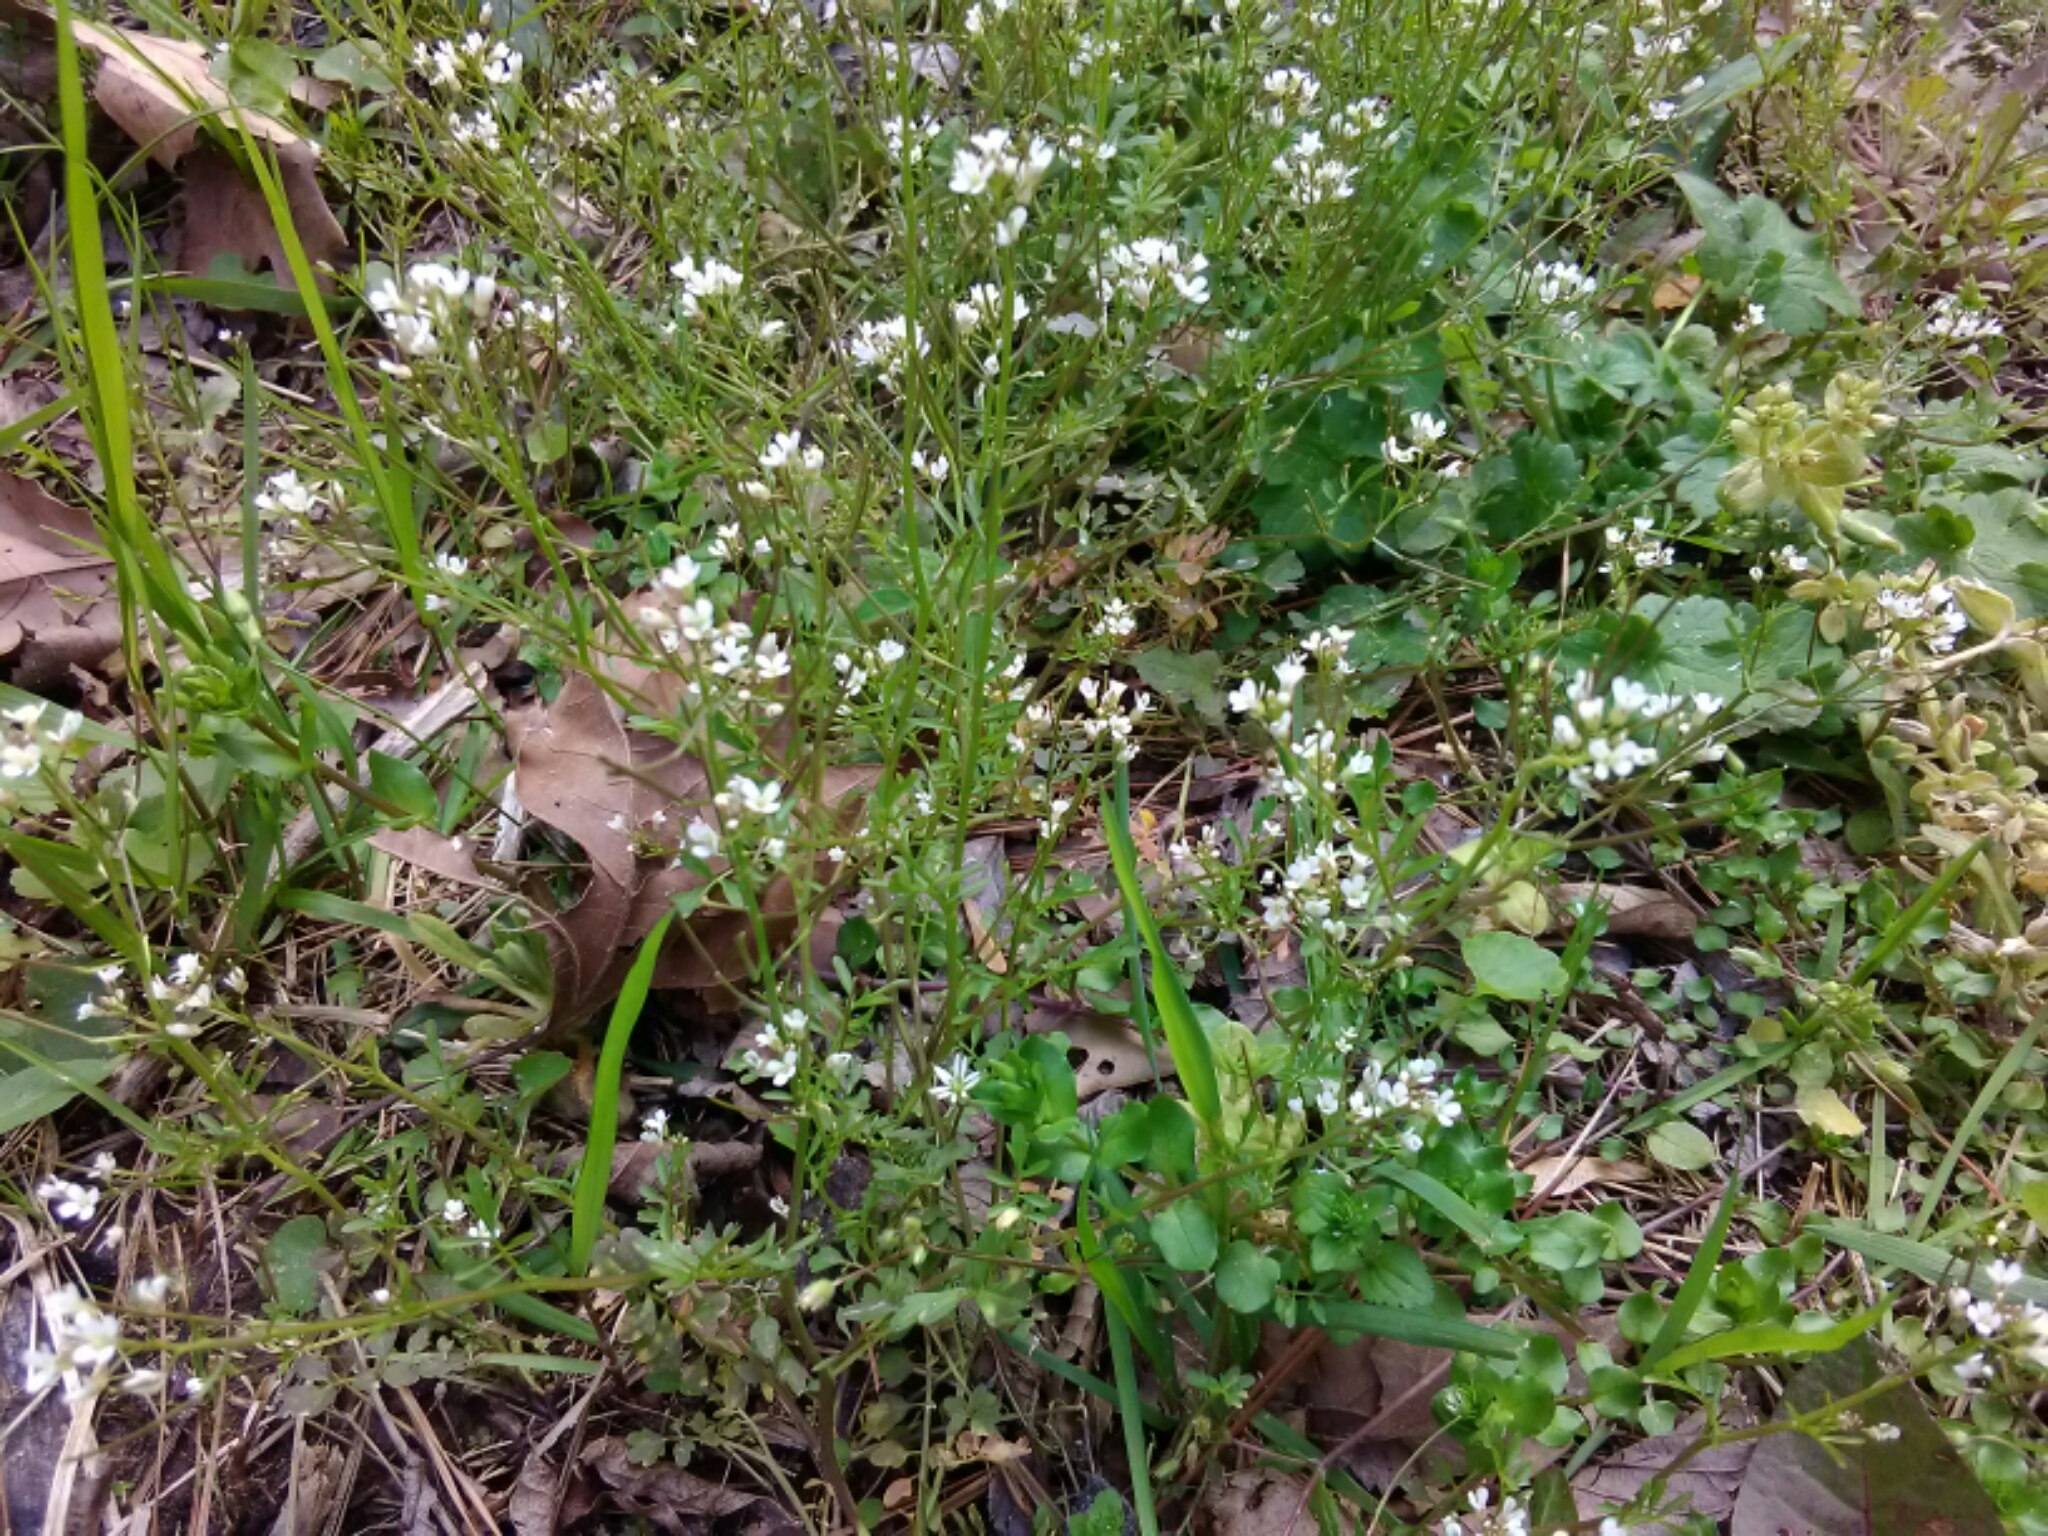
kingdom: Plantae
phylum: Tracheophyta
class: Magnoliopsida
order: Brassicales
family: Brassicaceae
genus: Cardamine
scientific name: Cardamine occulta
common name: Asian wavy bittercress
